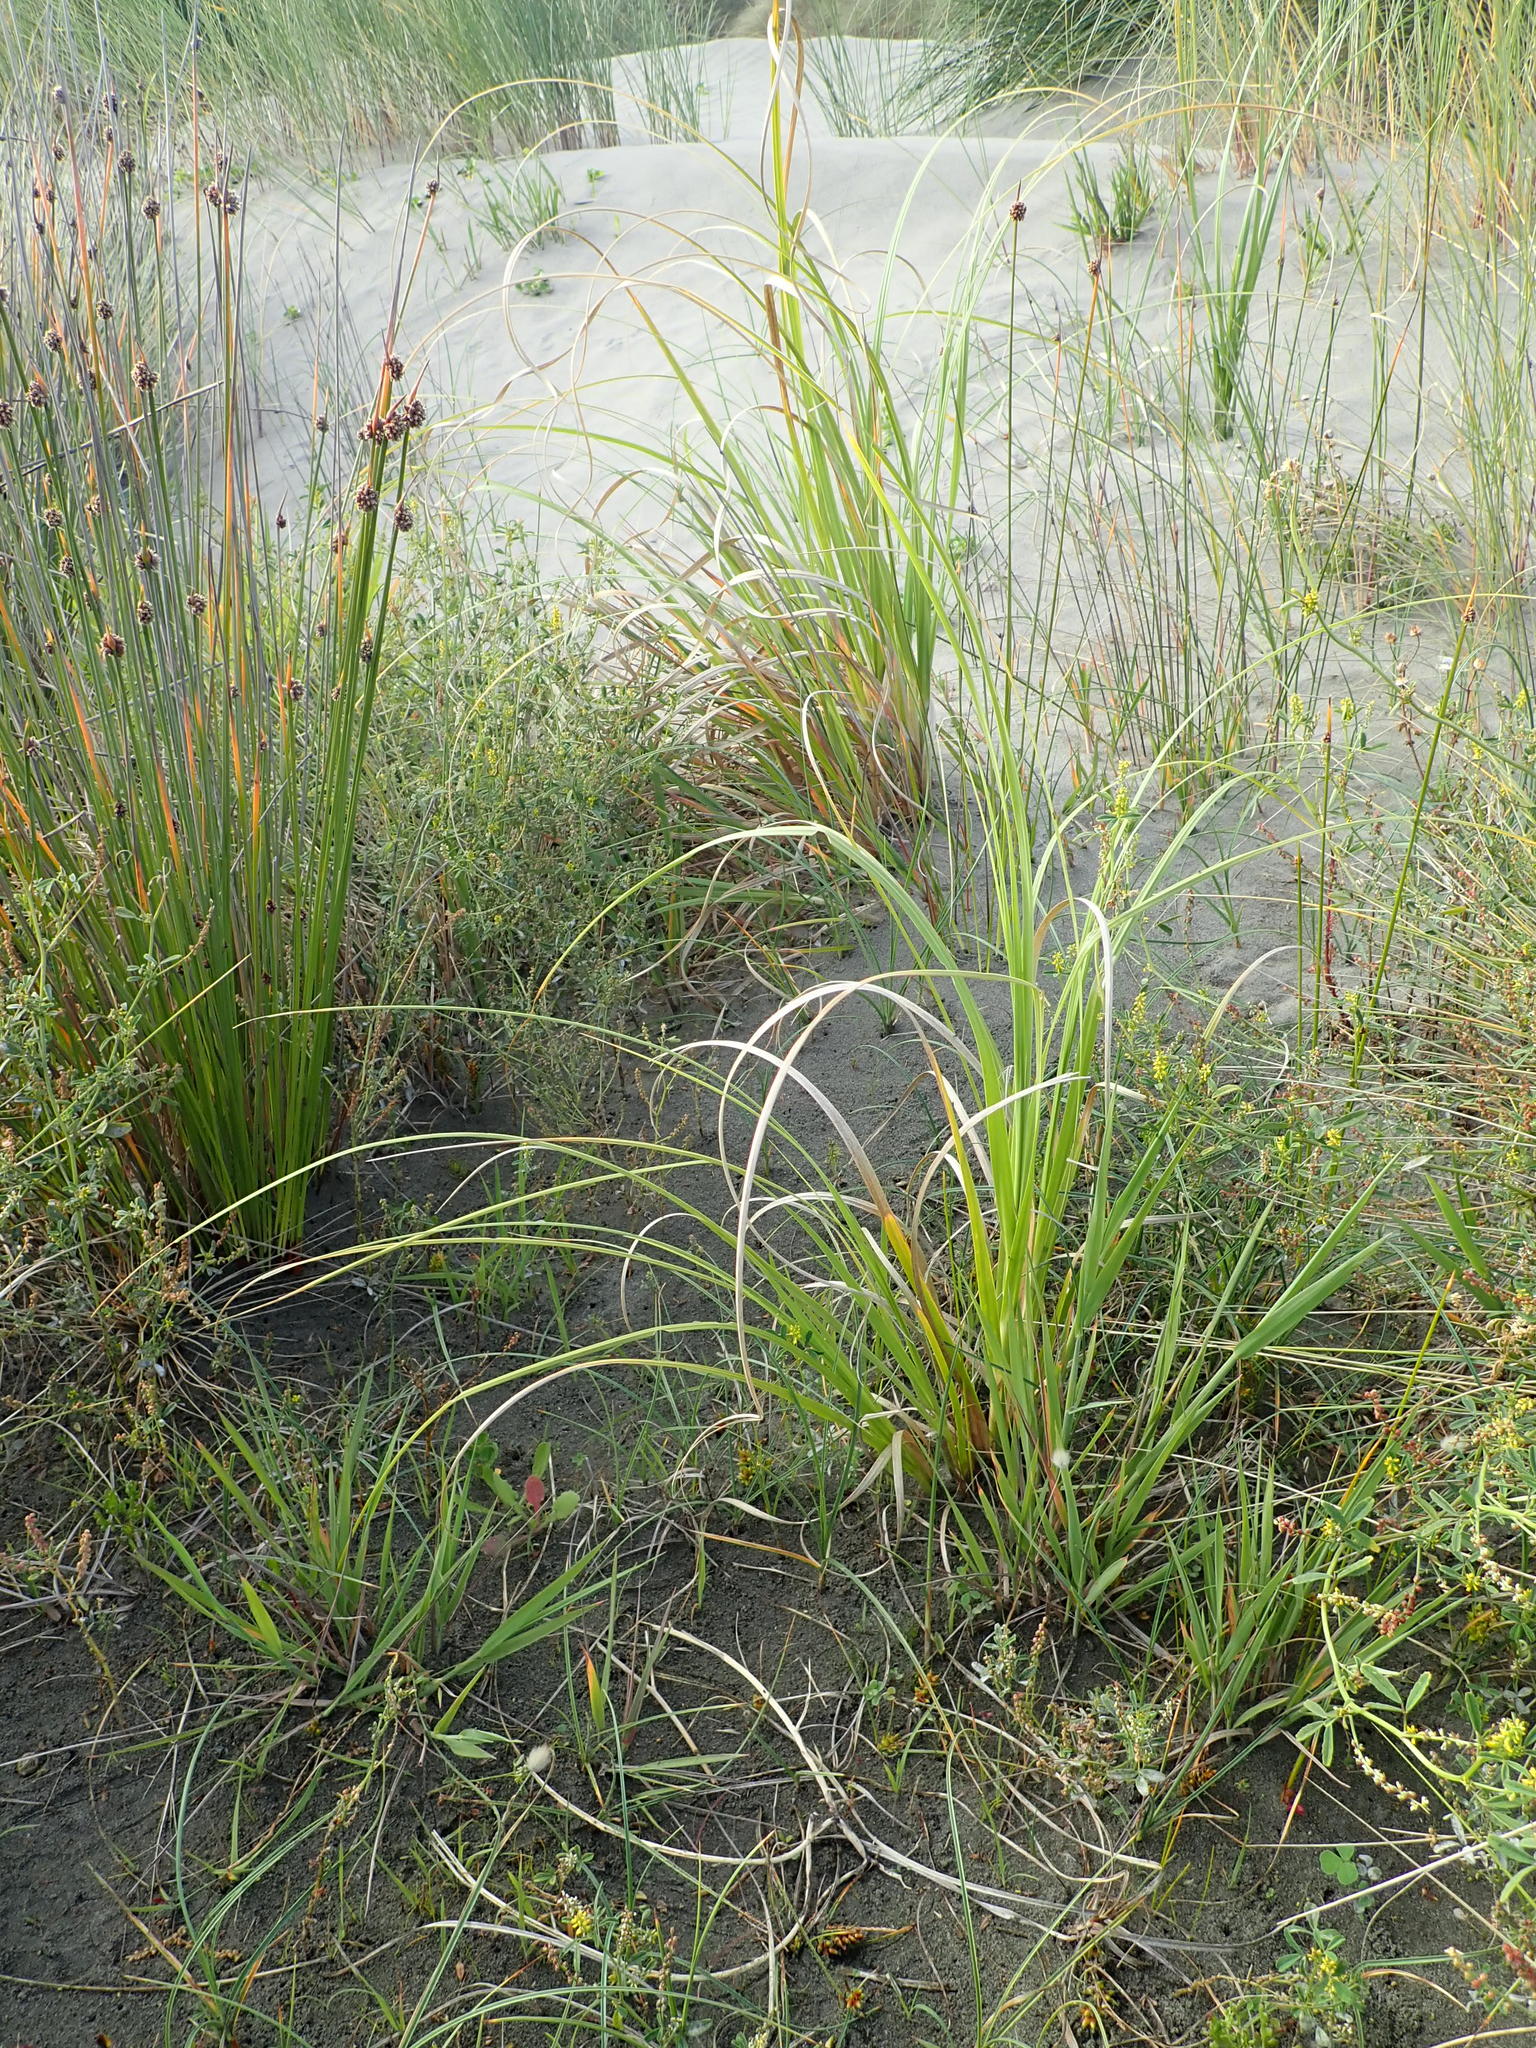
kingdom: Plantae
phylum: Tracheophyta
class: Liliopsida
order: Poales
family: Poaceae
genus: Cortaderia
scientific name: Cortaderia selloana
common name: Uruguayan pampas grass
